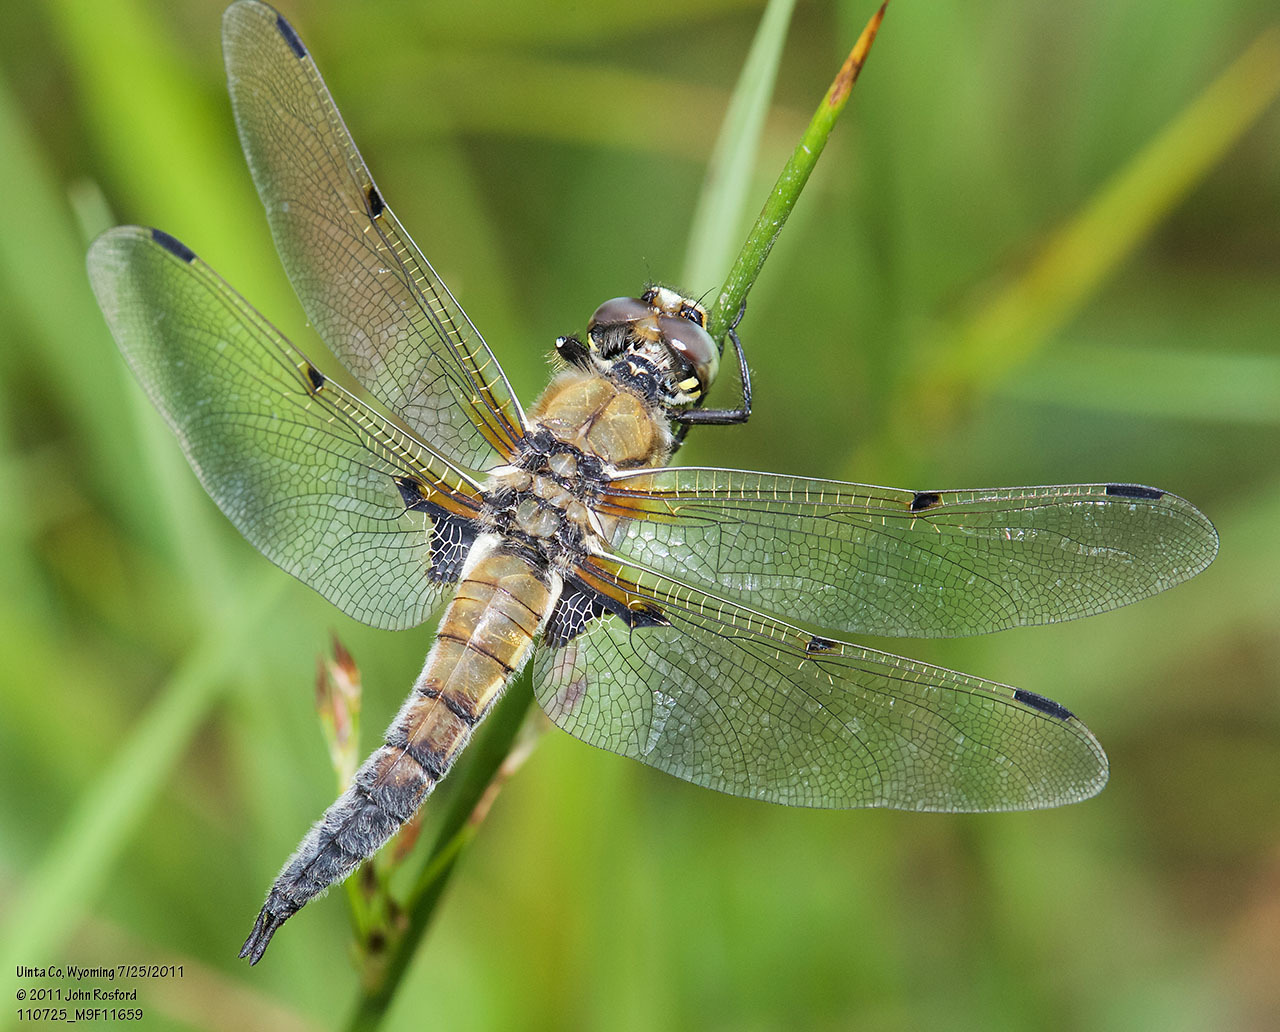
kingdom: Animalia
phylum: Arthropoda
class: Insecta
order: Odonata
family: Libellulidae
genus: Libellula
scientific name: Libellula quadrimaculata
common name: Four-spotted chaser
